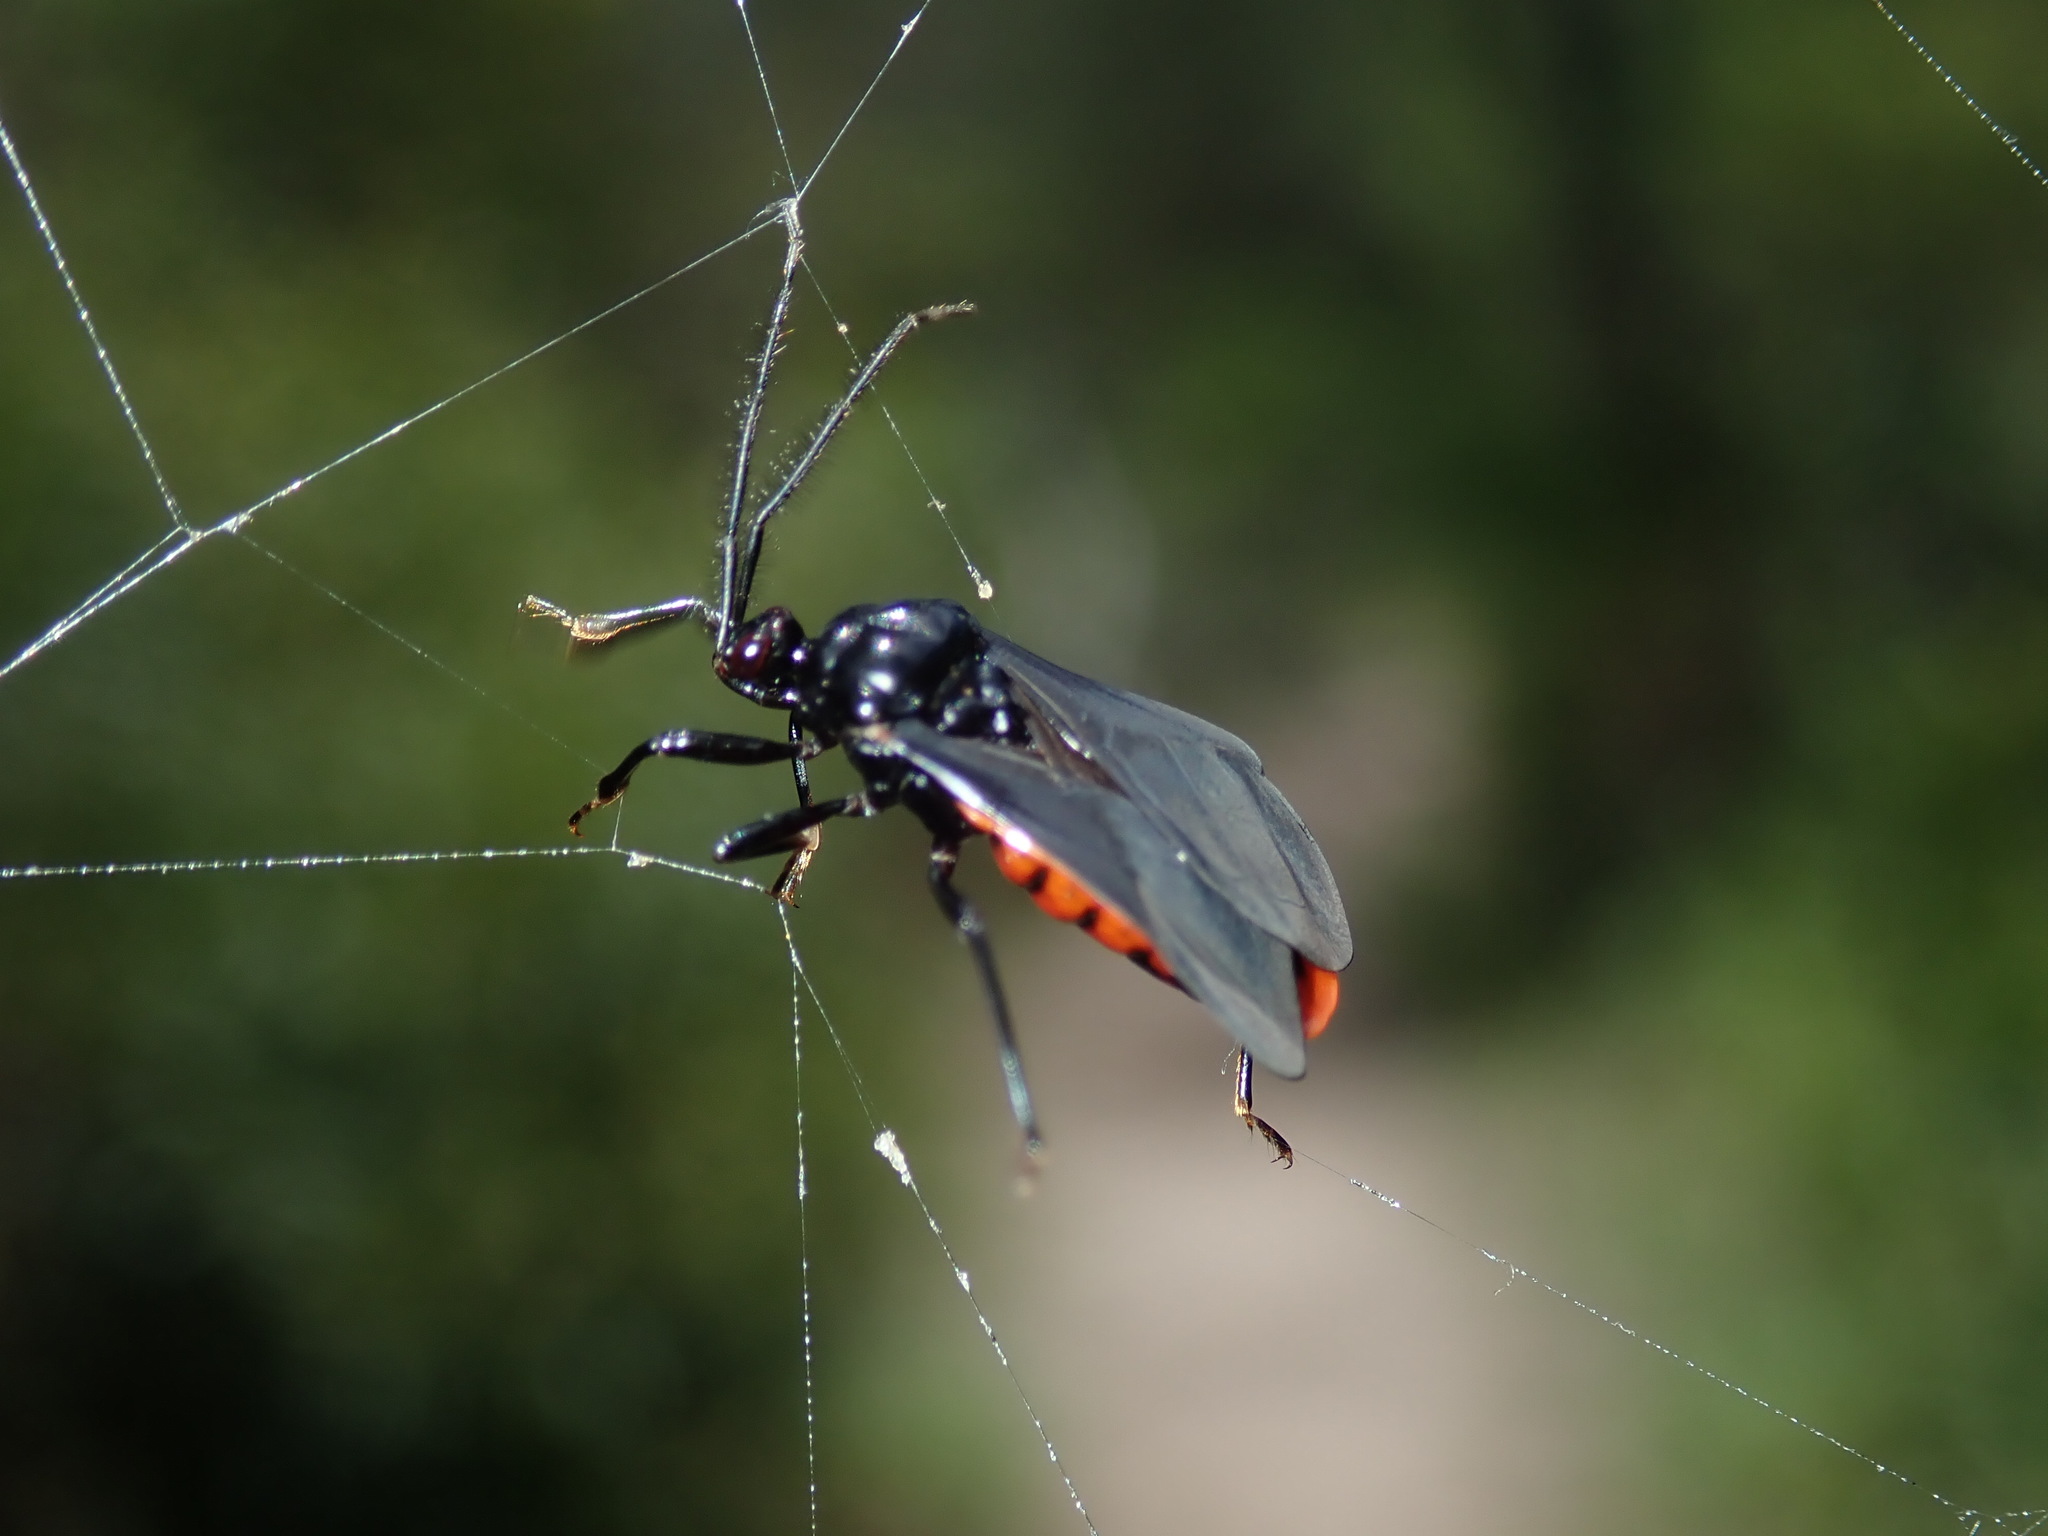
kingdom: Animalia
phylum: Arthropoda
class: Insecta
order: Hemiptera
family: Reduviidae
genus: Lyramna
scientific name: Lyramna vigil
